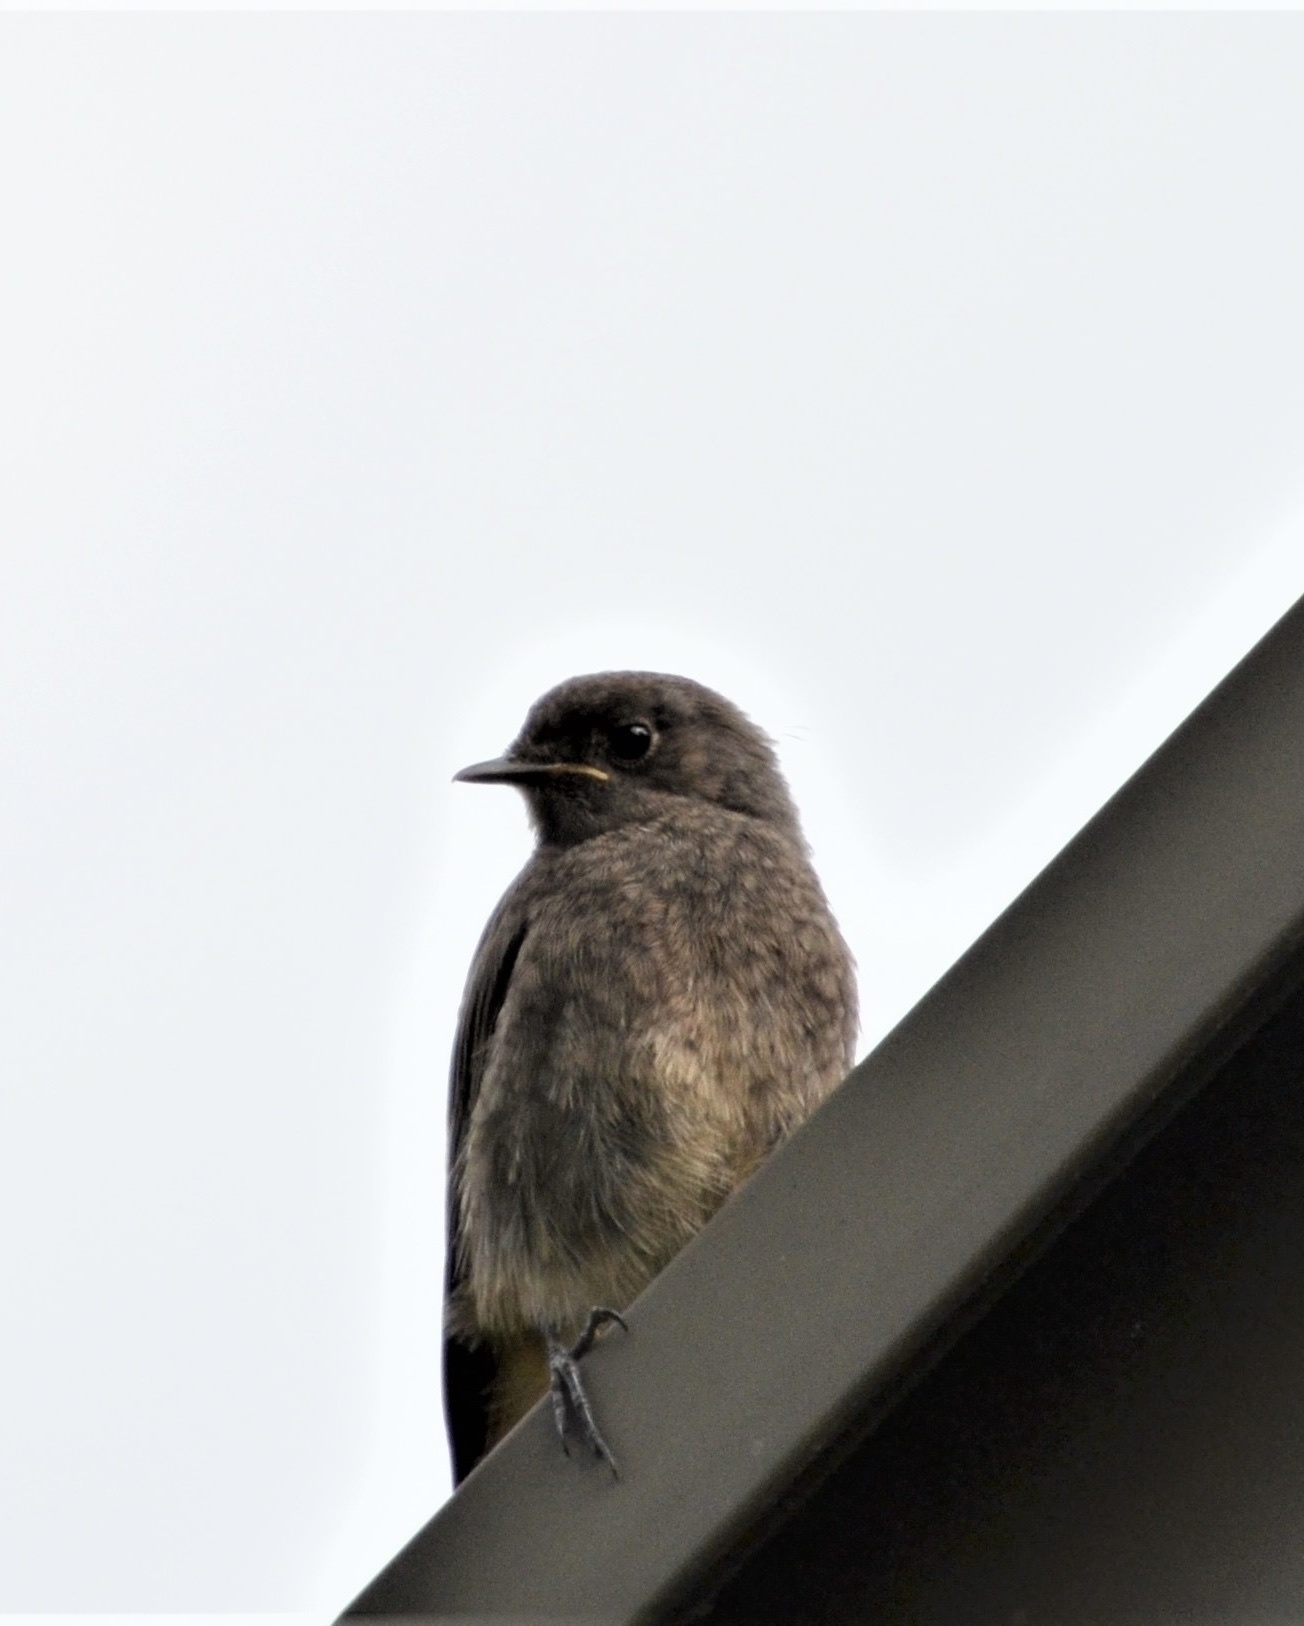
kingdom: Animalia
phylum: Chordata
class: Aves
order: Passeriformes
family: Muscicapidae
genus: Phoenicurus
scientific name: Phoenicurus ochruros
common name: Black redstart
